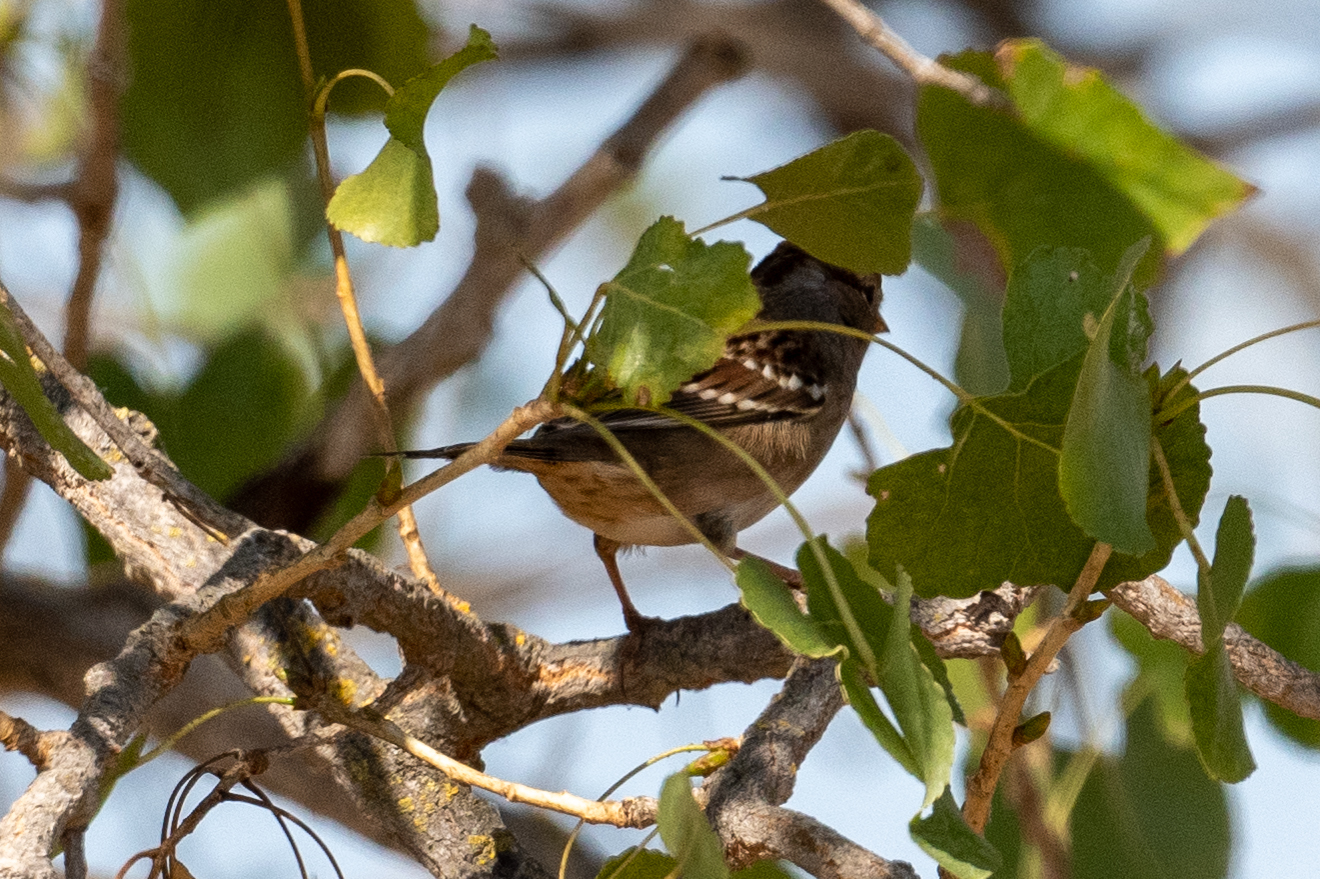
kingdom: Animalia
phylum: Chordata
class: Aves
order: Passeriformes
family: Passerellidae
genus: Zonotrichia
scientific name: Zonotrichia leucophrys
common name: White-crowned sparrow
